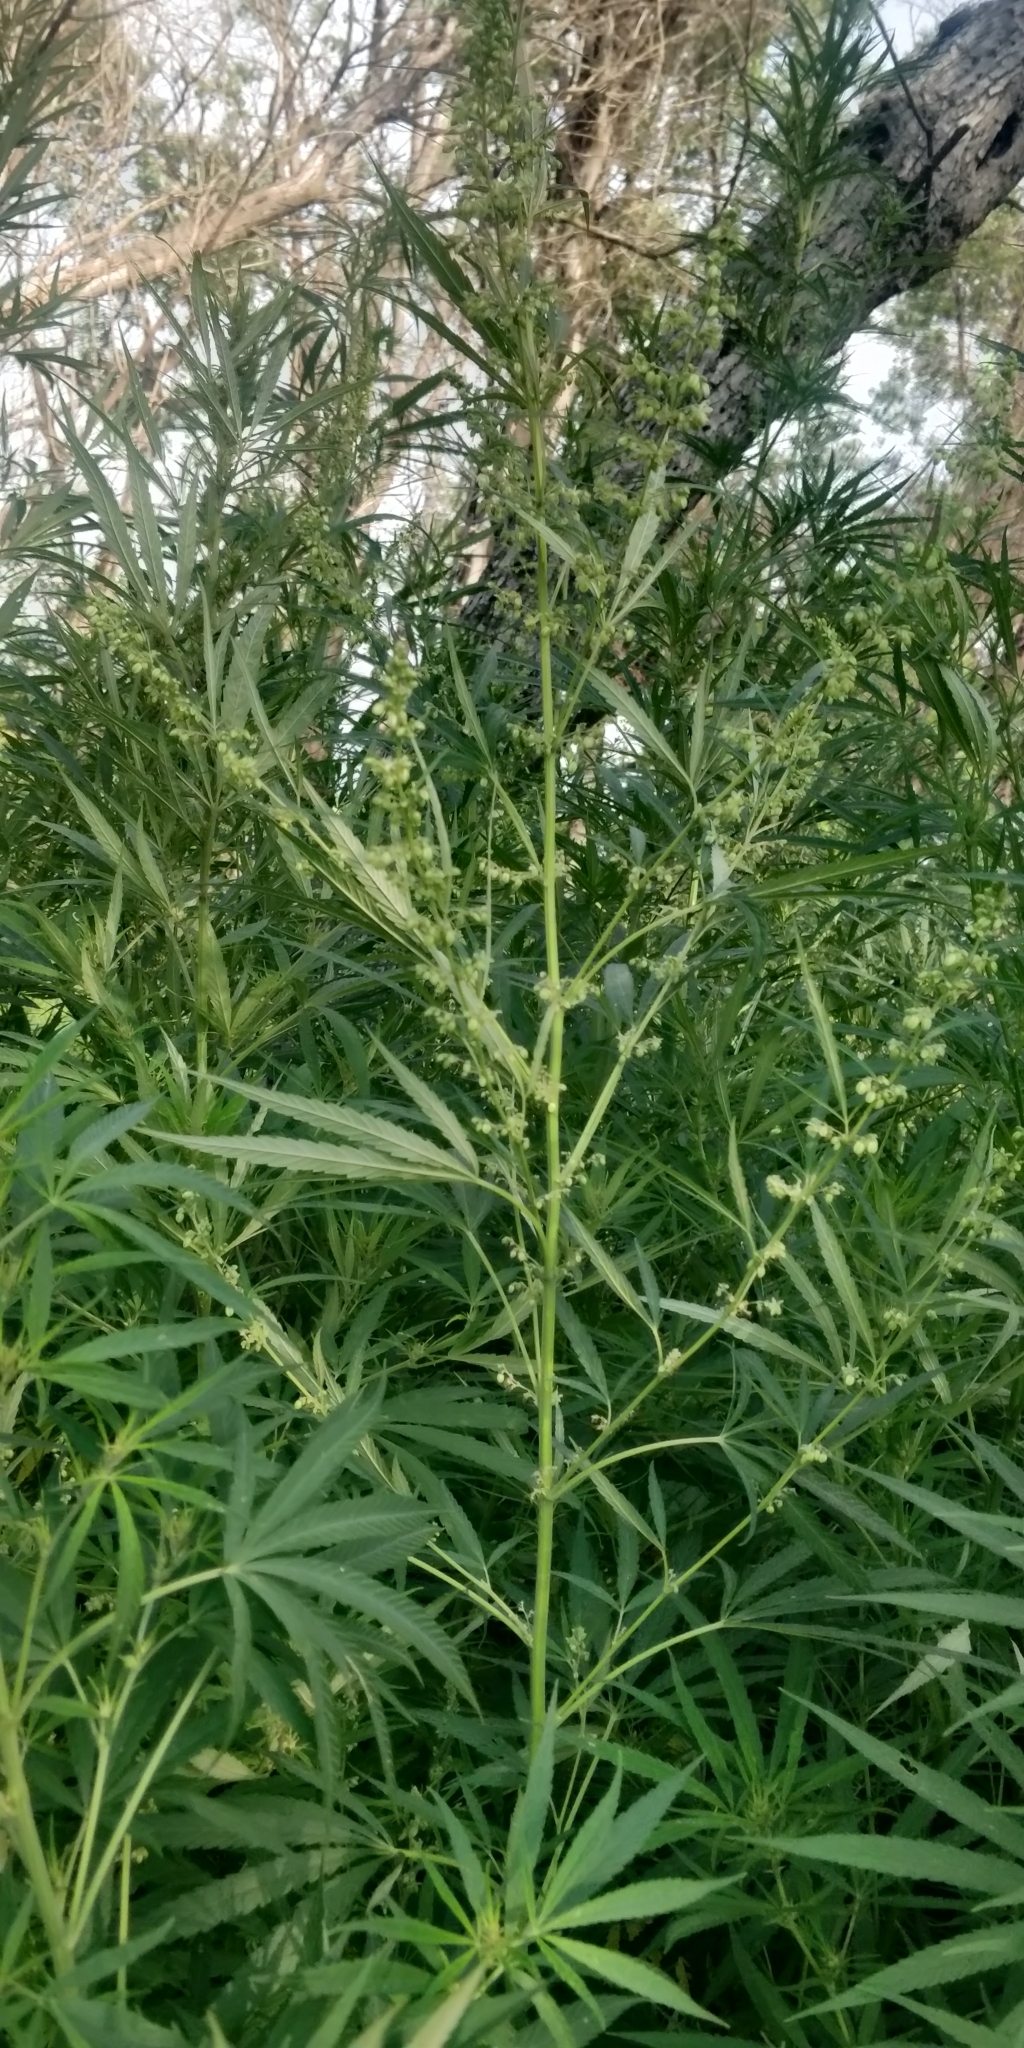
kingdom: Plantae
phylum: Tracheophyta
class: Magnoliopsida
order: Rosales
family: Cannabaceae
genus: Cannabis
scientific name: Cannabis sativa
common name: Hemp
